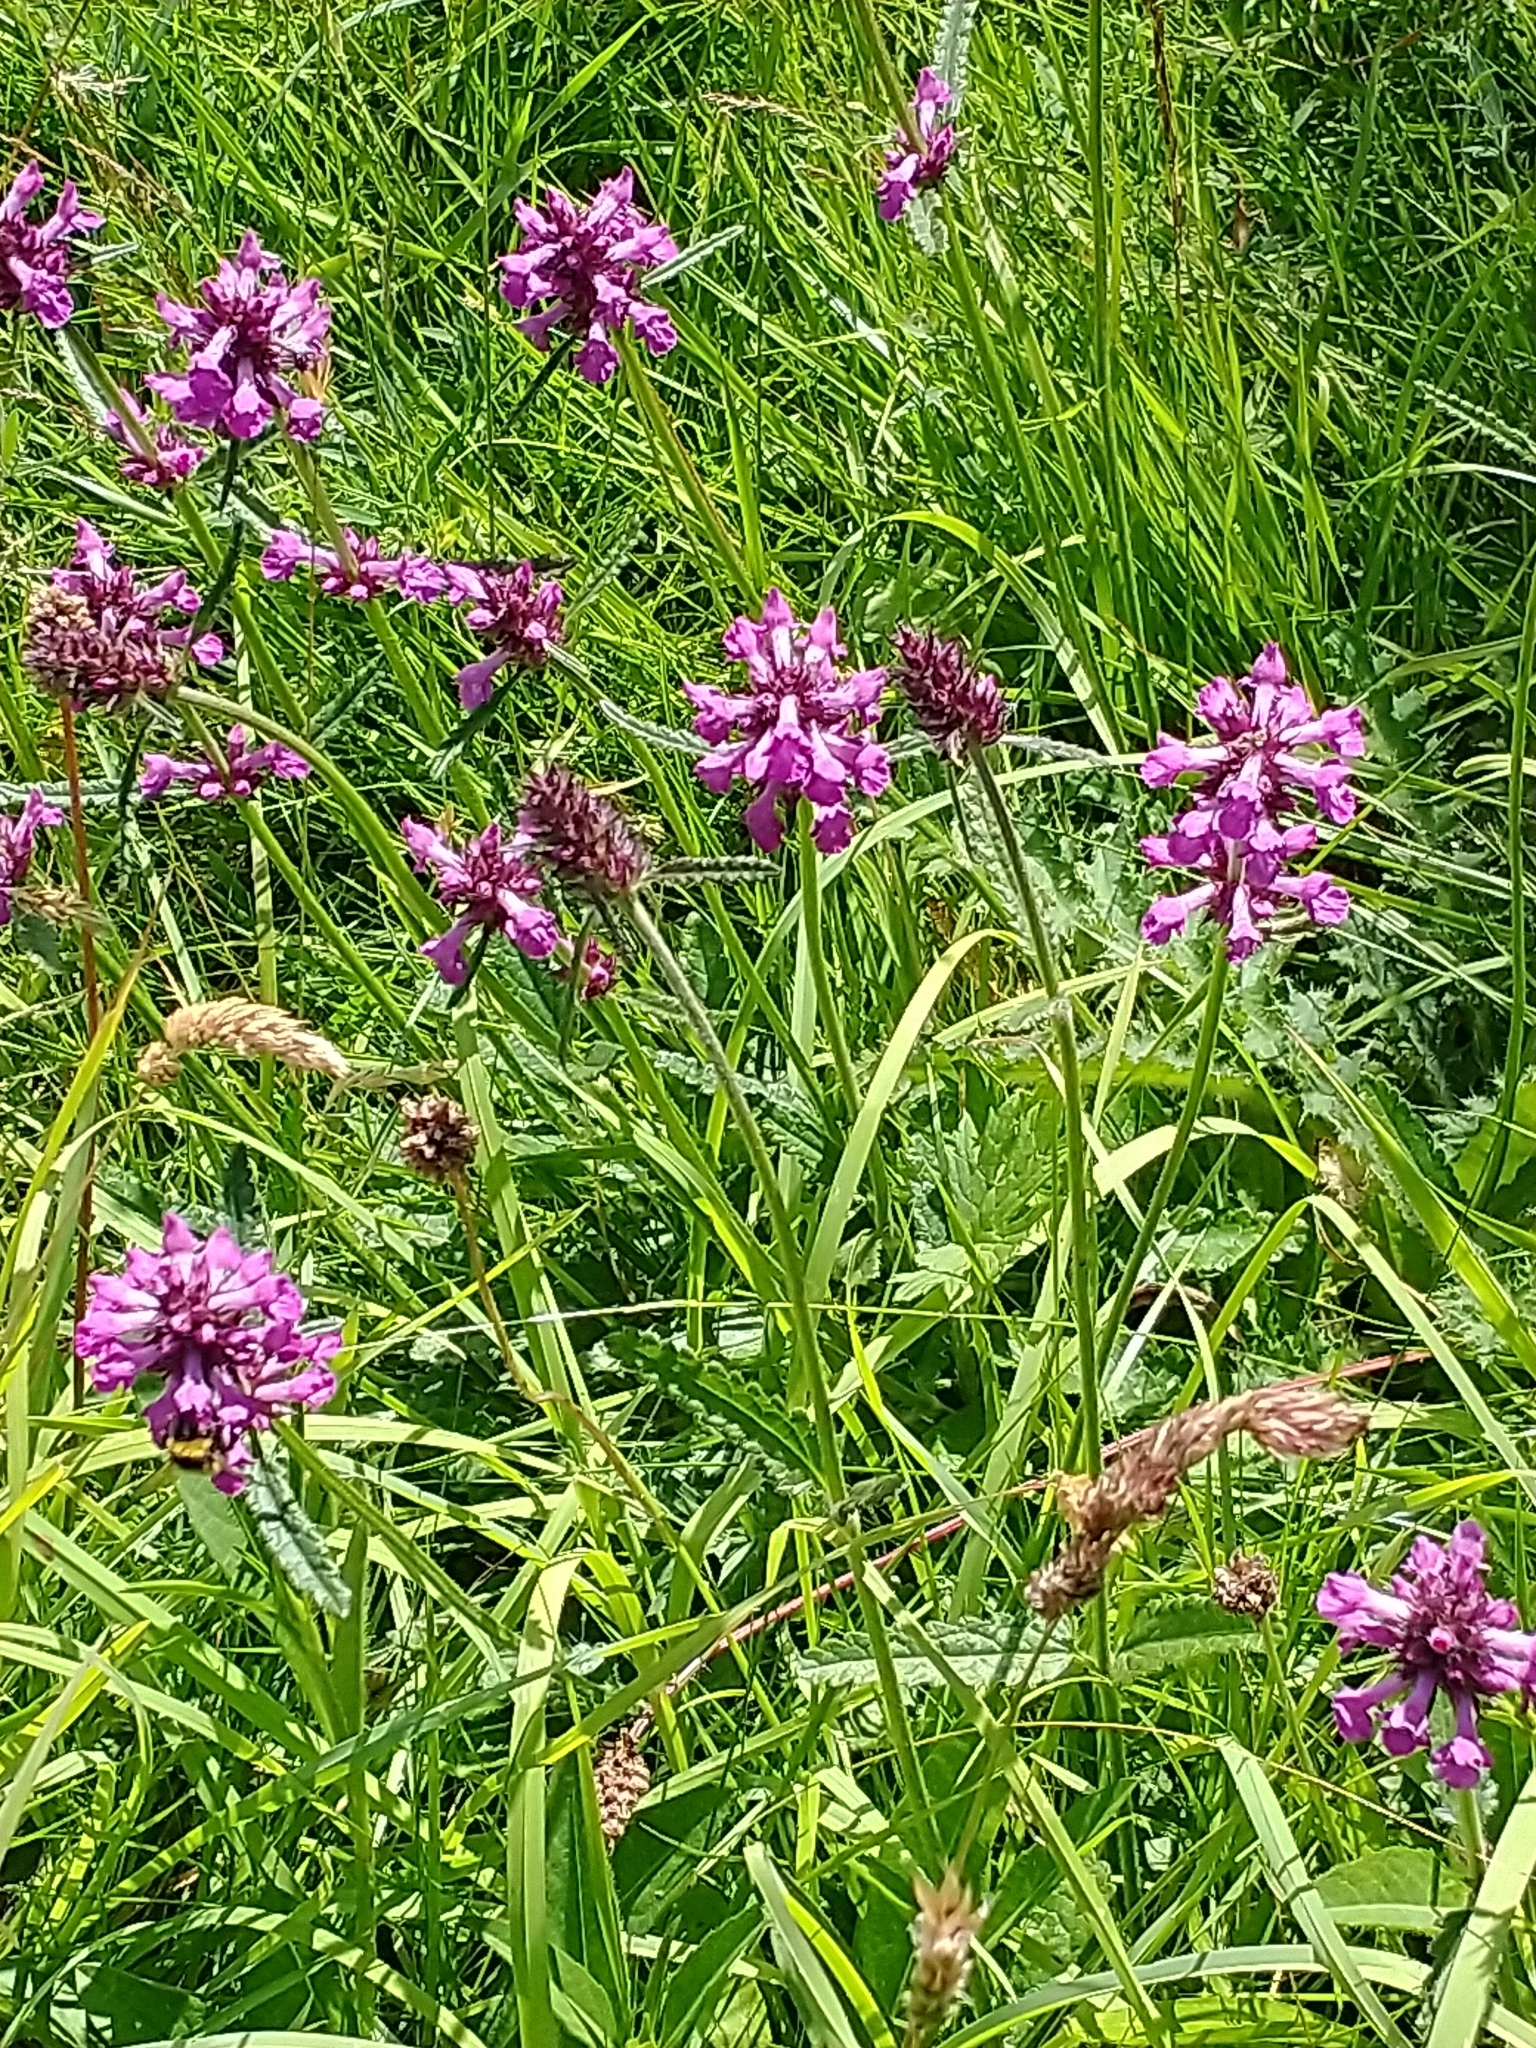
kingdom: Plantae
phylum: Tracheophyta
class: Magnoliopsida
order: Lamiales
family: Lamiaceae
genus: Betonica
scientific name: Betonica officinalis
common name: Bishop's-wort
